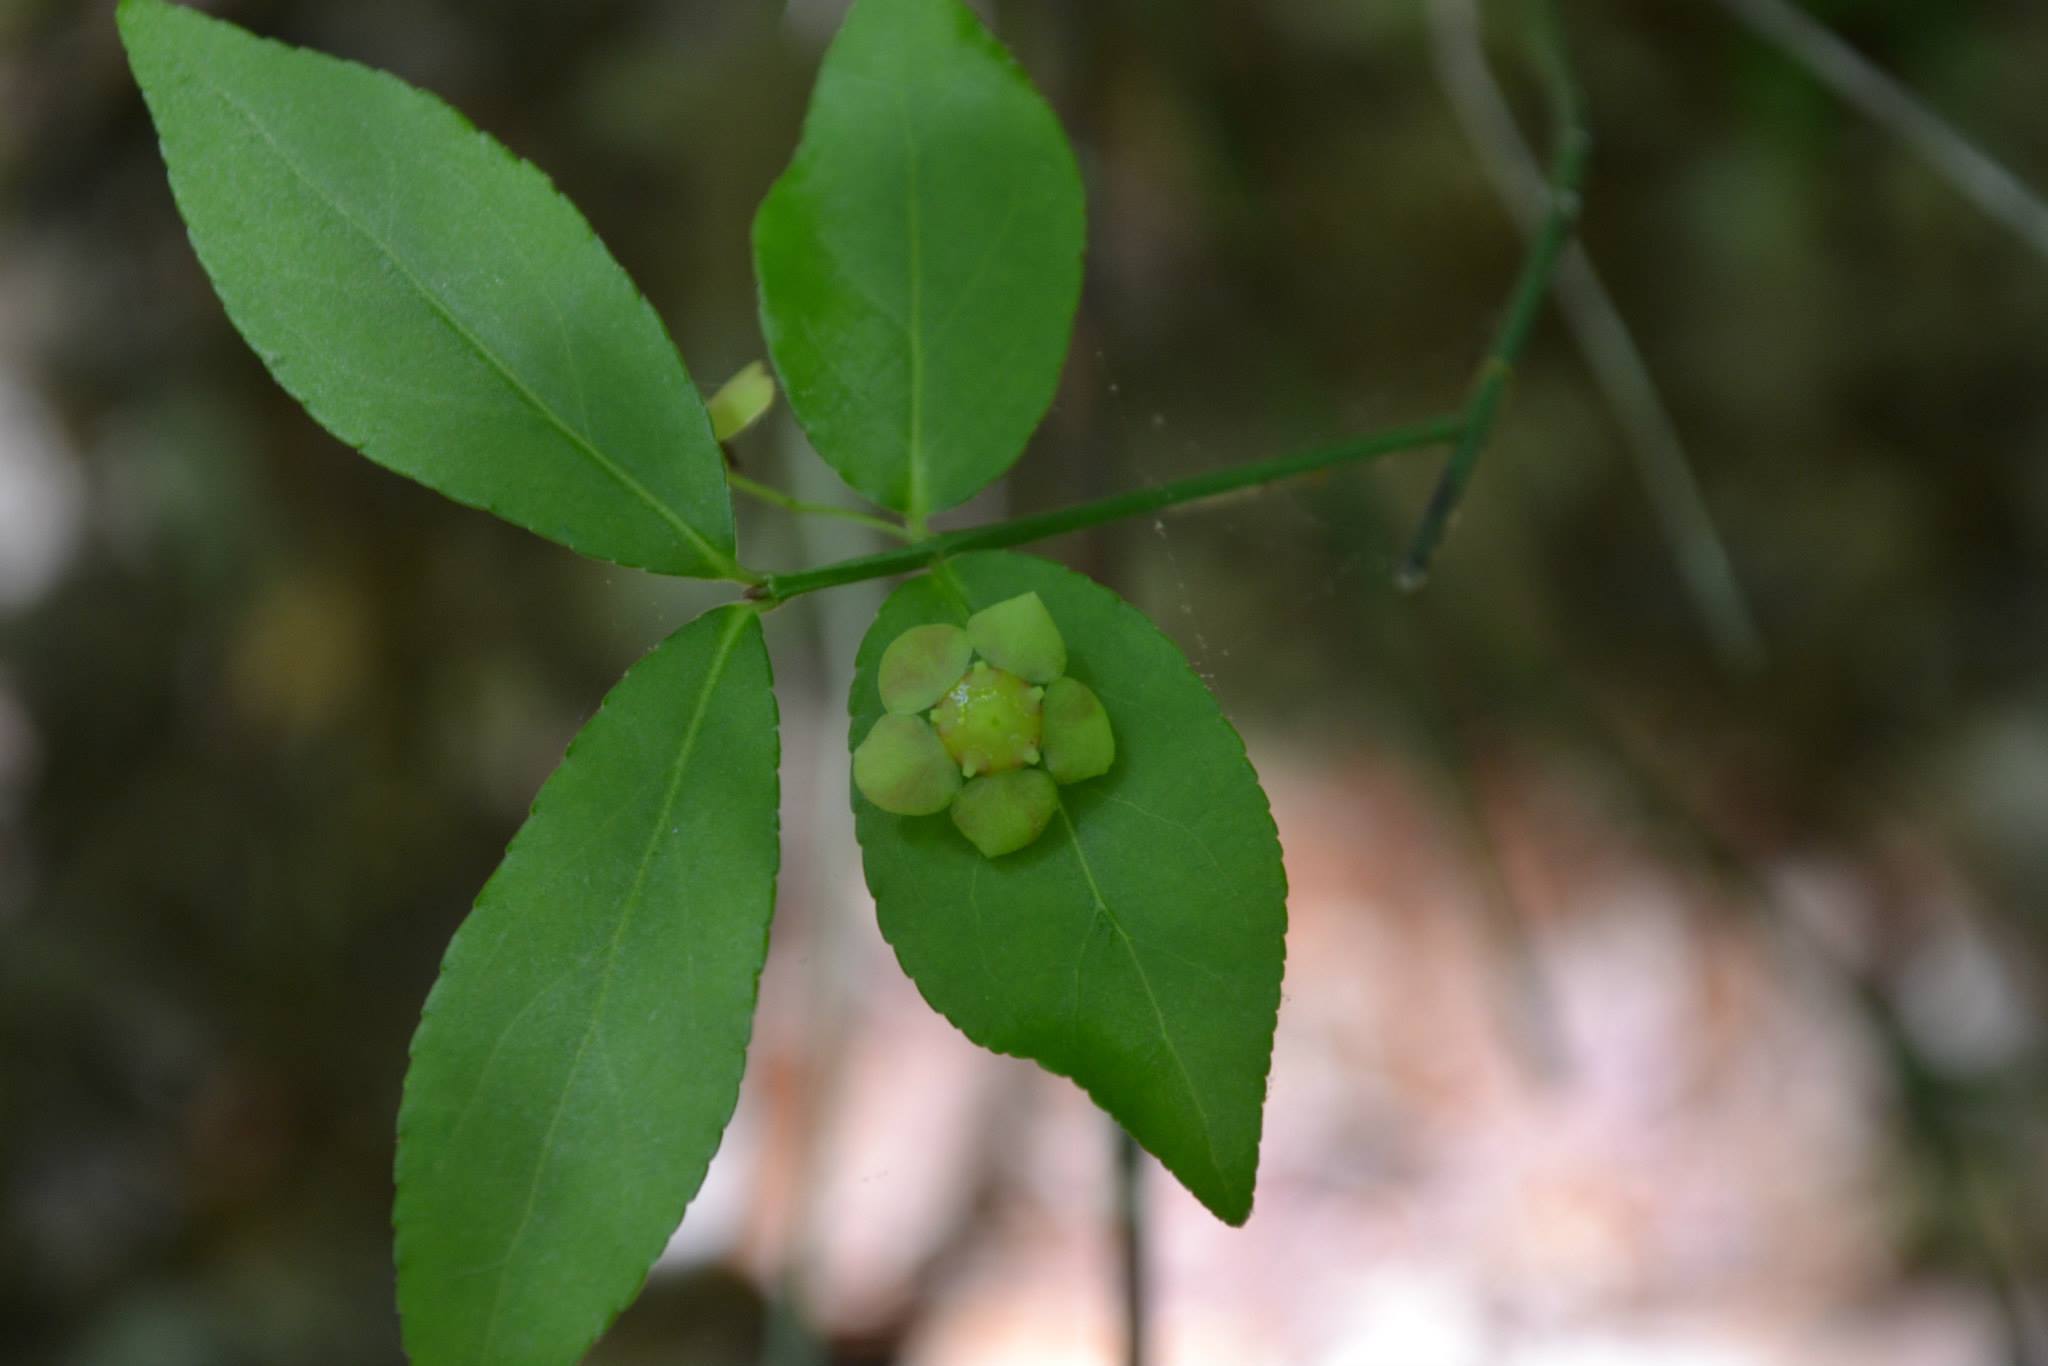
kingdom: Plantae
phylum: Tracheophyta
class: Magnoliopsida
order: Celastrales
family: Celastraceae
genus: Euonymus
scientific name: Euonymus americanus
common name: Bursting-heart
